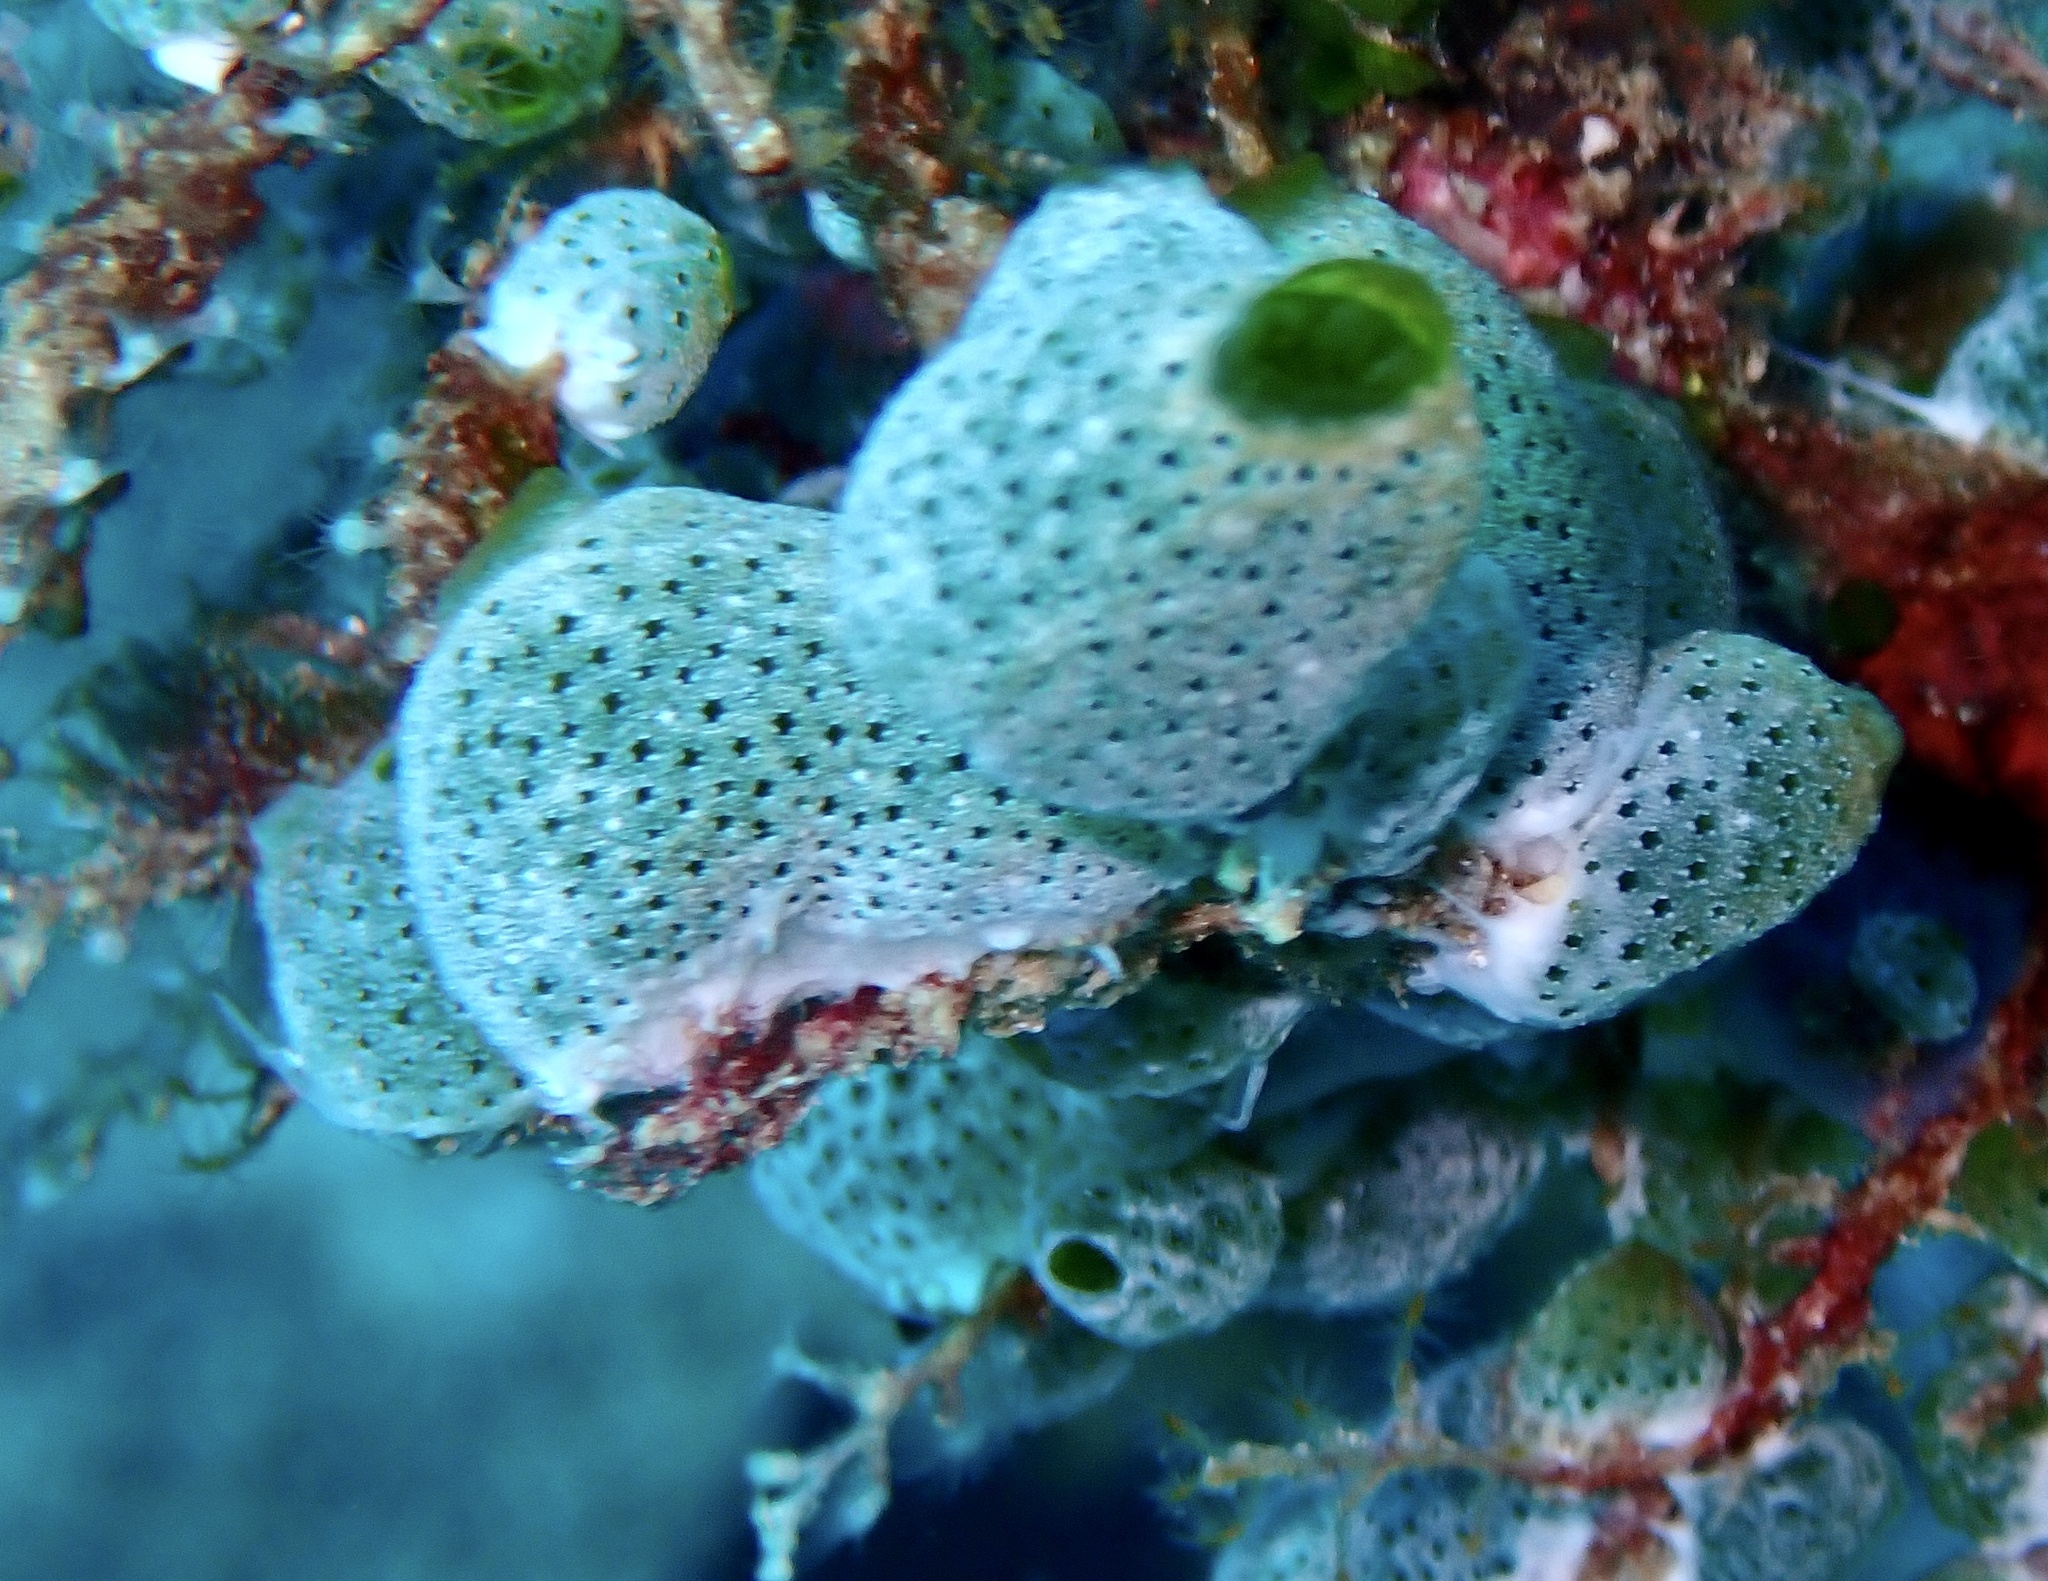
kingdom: Animalia
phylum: Chordata
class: Ascidiacea
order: Aplousobranchia
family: Didemnidae
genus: Didemnum
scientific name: Didemnum molle
